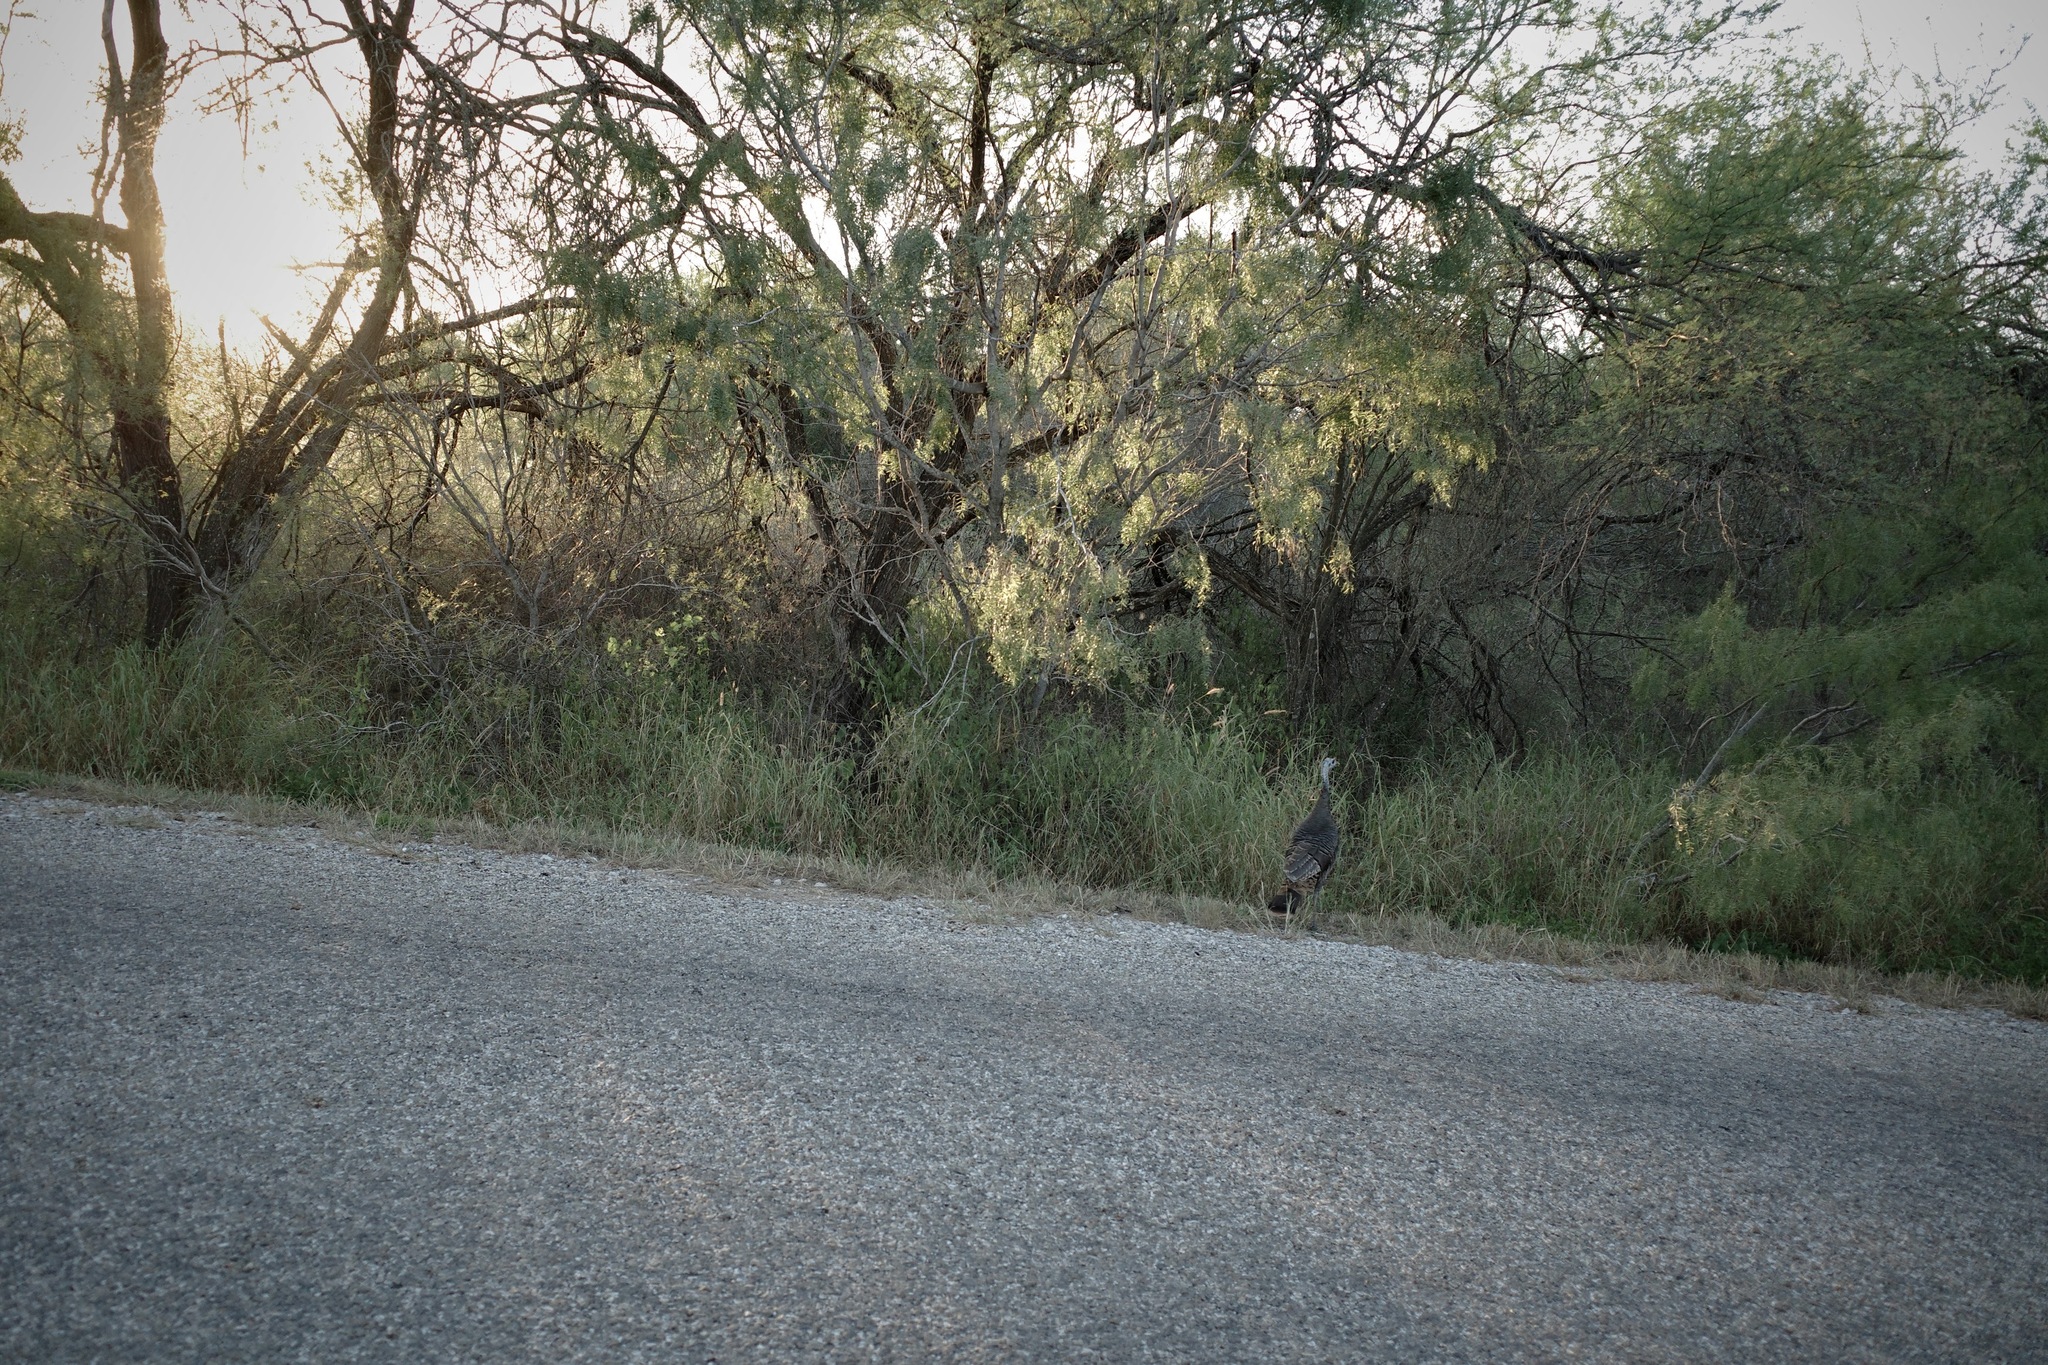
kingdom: Animalia
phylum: Chordata
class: Aves
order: Galliformes
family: Phasianidae
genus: Meleagris
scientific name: Meleagris gallopavo
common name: Wild turkey
